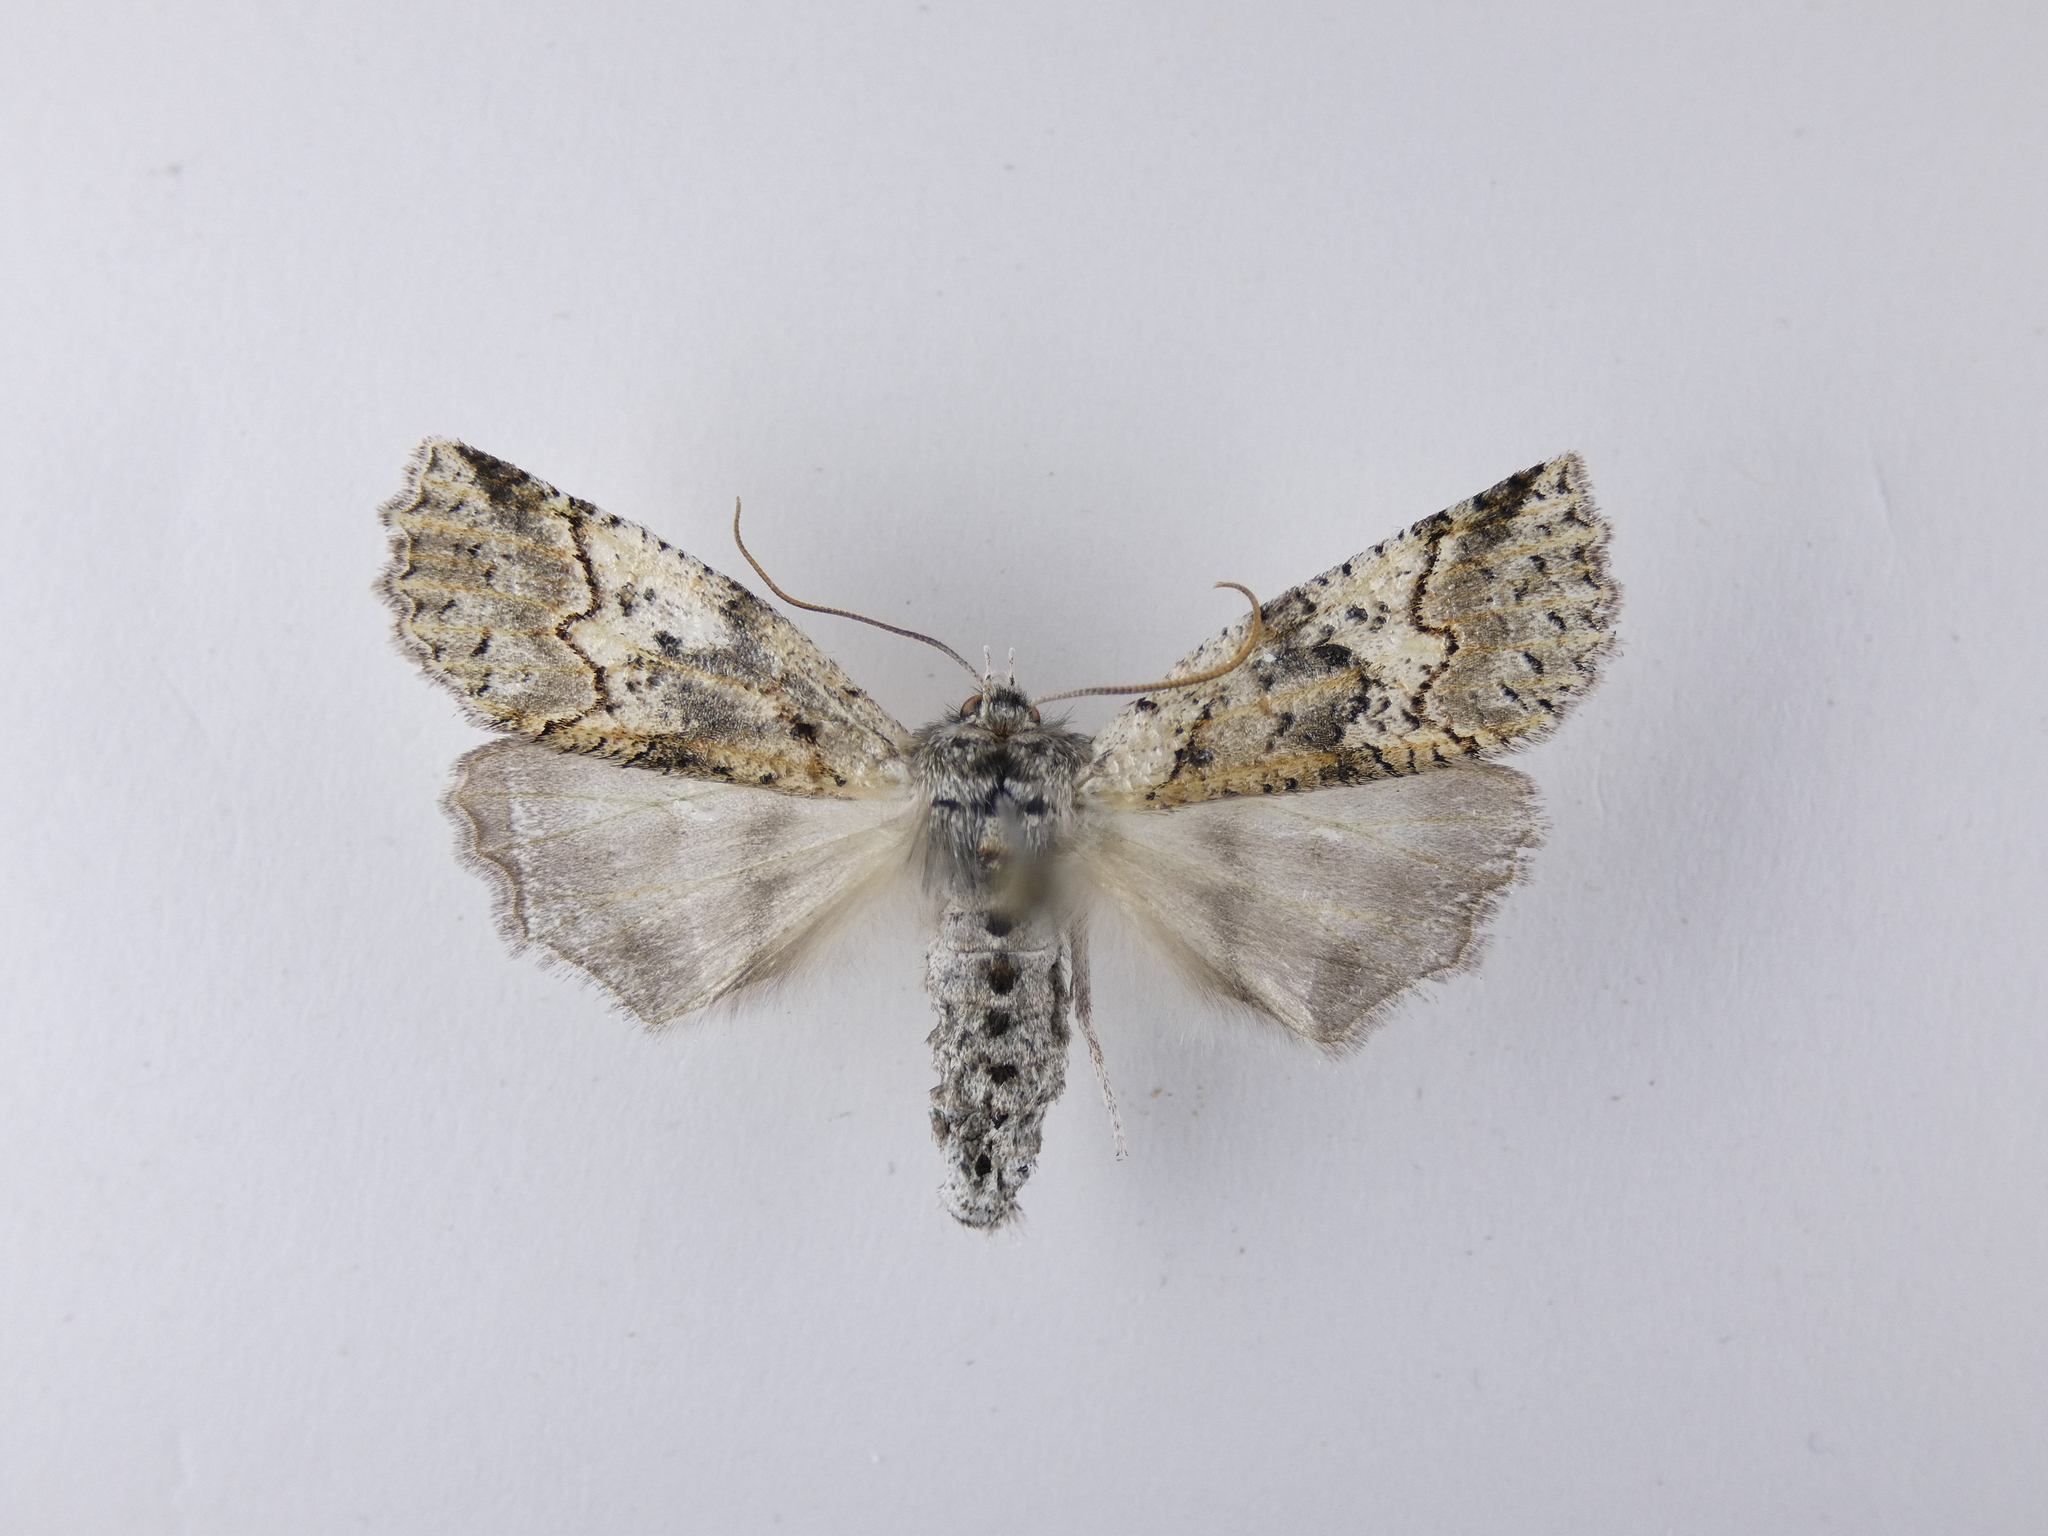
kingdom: Animalia
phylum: Arthropoda
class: Insecta
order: Lepidoptera
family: Geometridae
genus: Declana
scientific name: Declana floccosa
